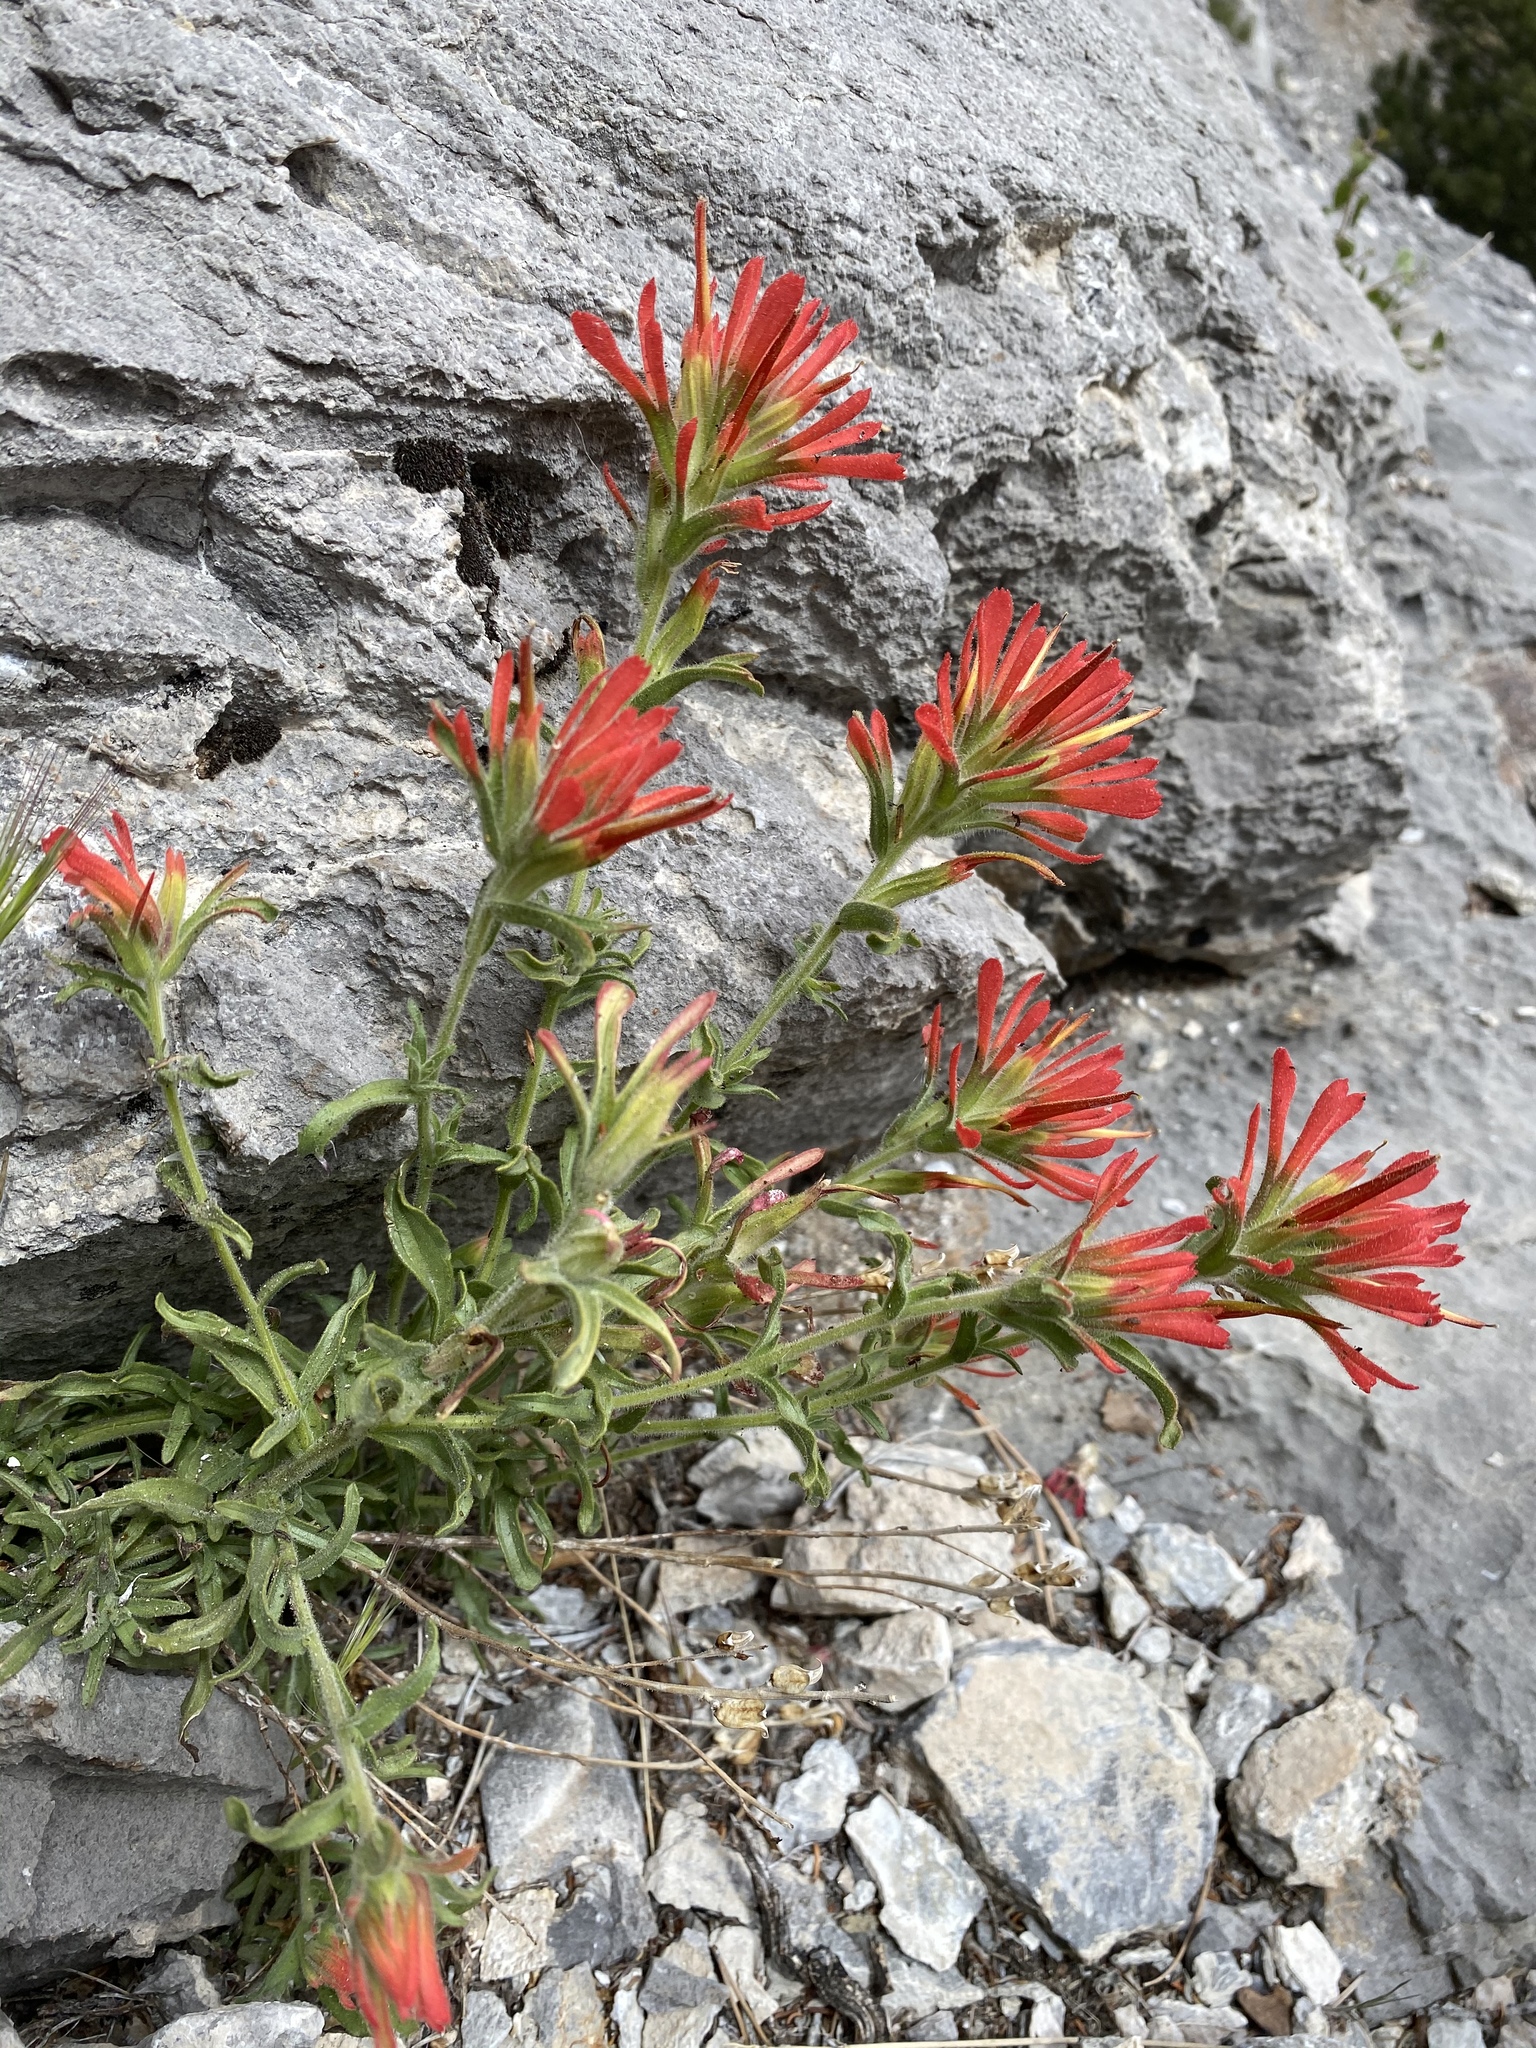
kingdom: Plantae
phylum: Tracheophyta
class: Magnoliopsida
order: Lamiales
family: Orobanchaceae
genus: Castilleja
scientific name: Castilleja martini
